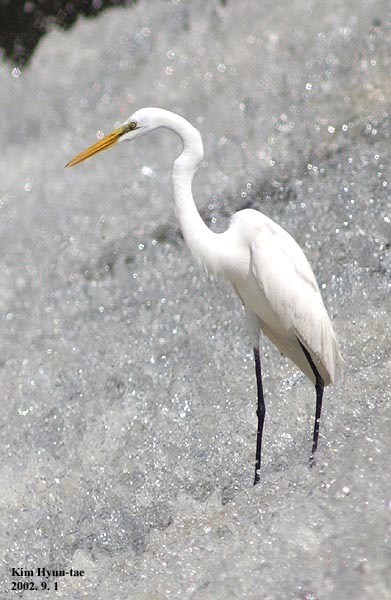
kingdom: Animalia
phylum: Chordata
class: Aves
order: Pelecaniformes
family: Ardeidae
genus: Ardea
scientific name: Ardea modesta
